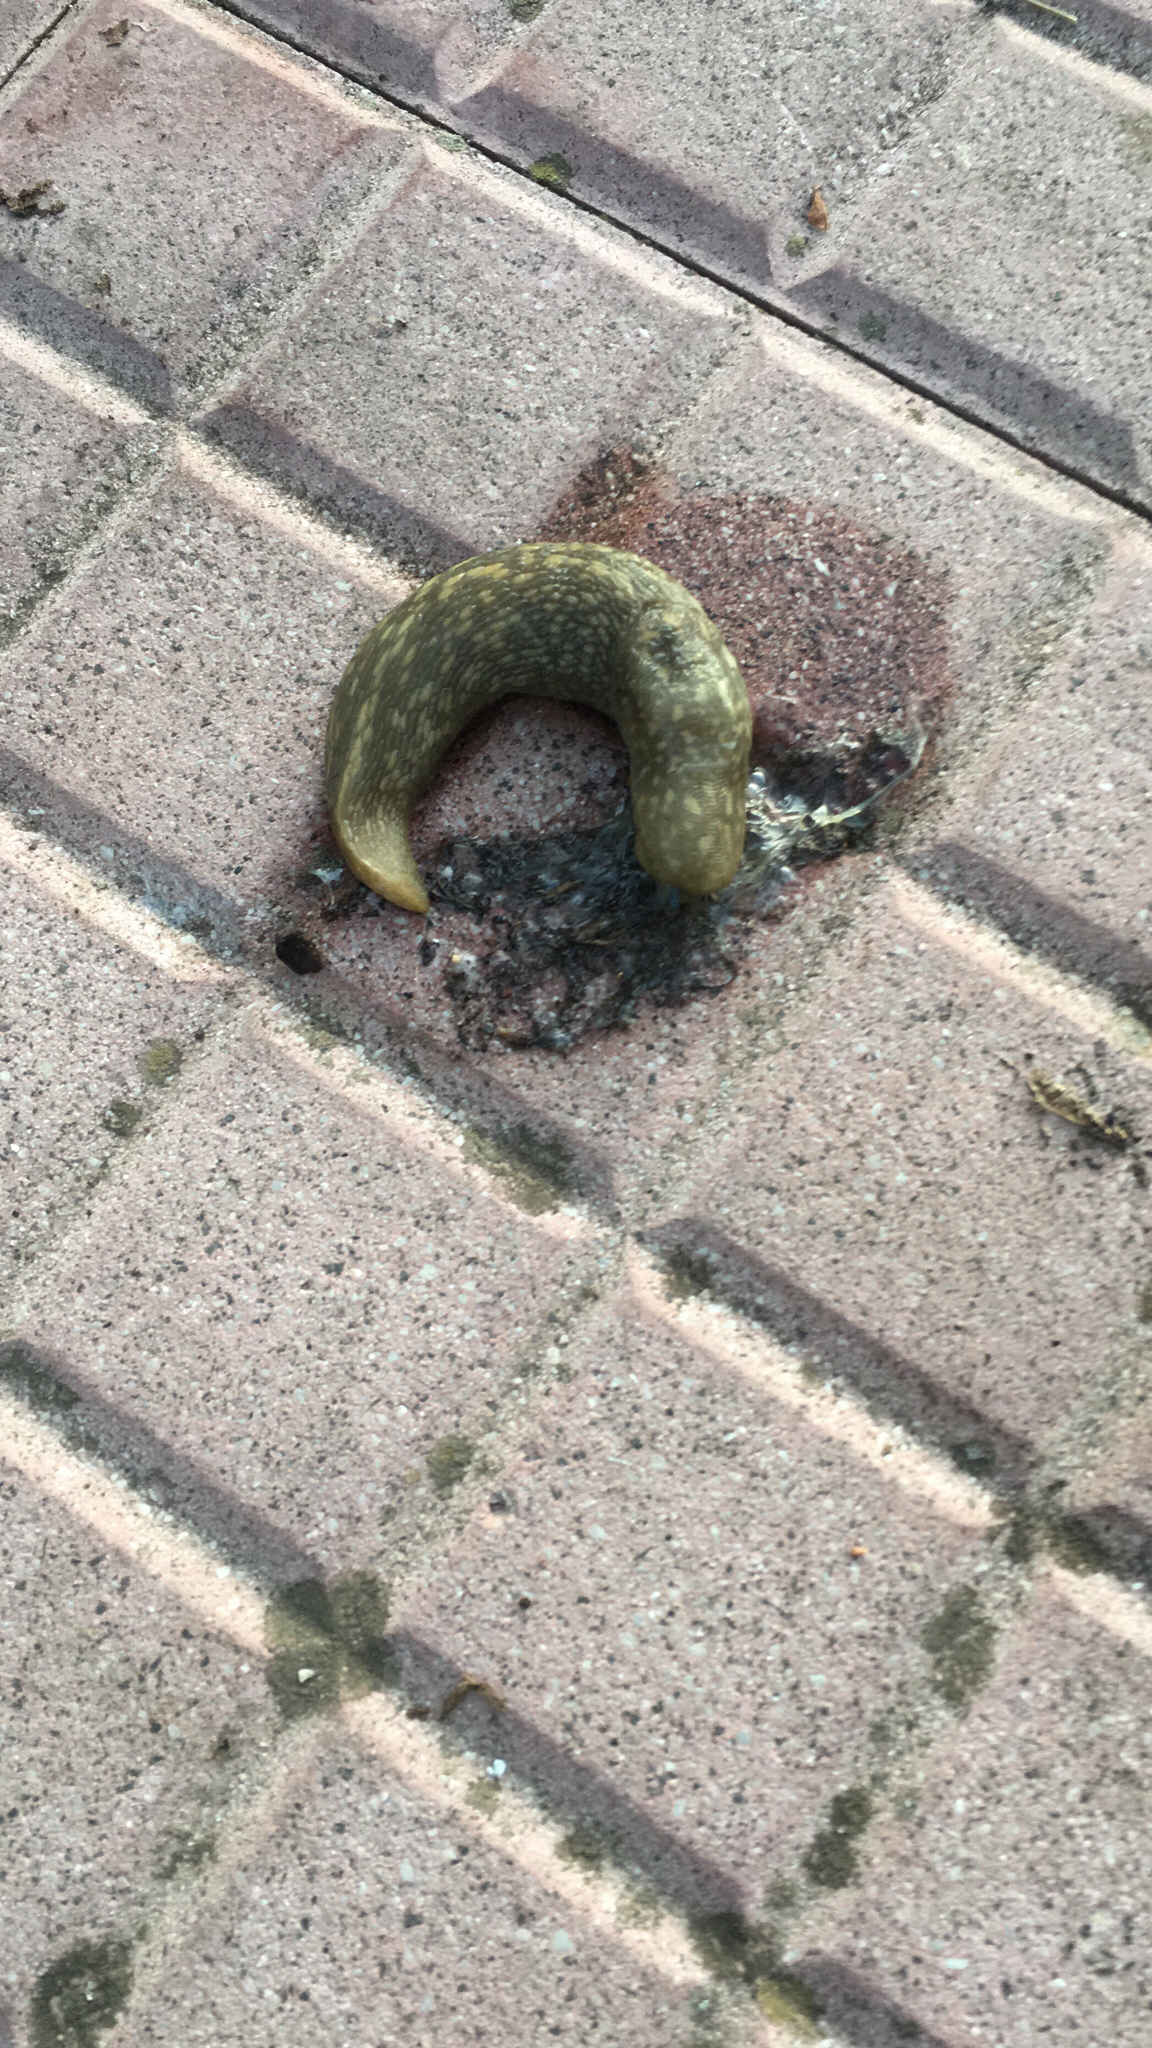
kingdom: Animalia
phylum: Mollusca
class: Gastropoda
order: Stylommatophora
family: Limacidae
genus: Limacus
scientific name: Limacus flavus
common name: Yellow gardenslug
